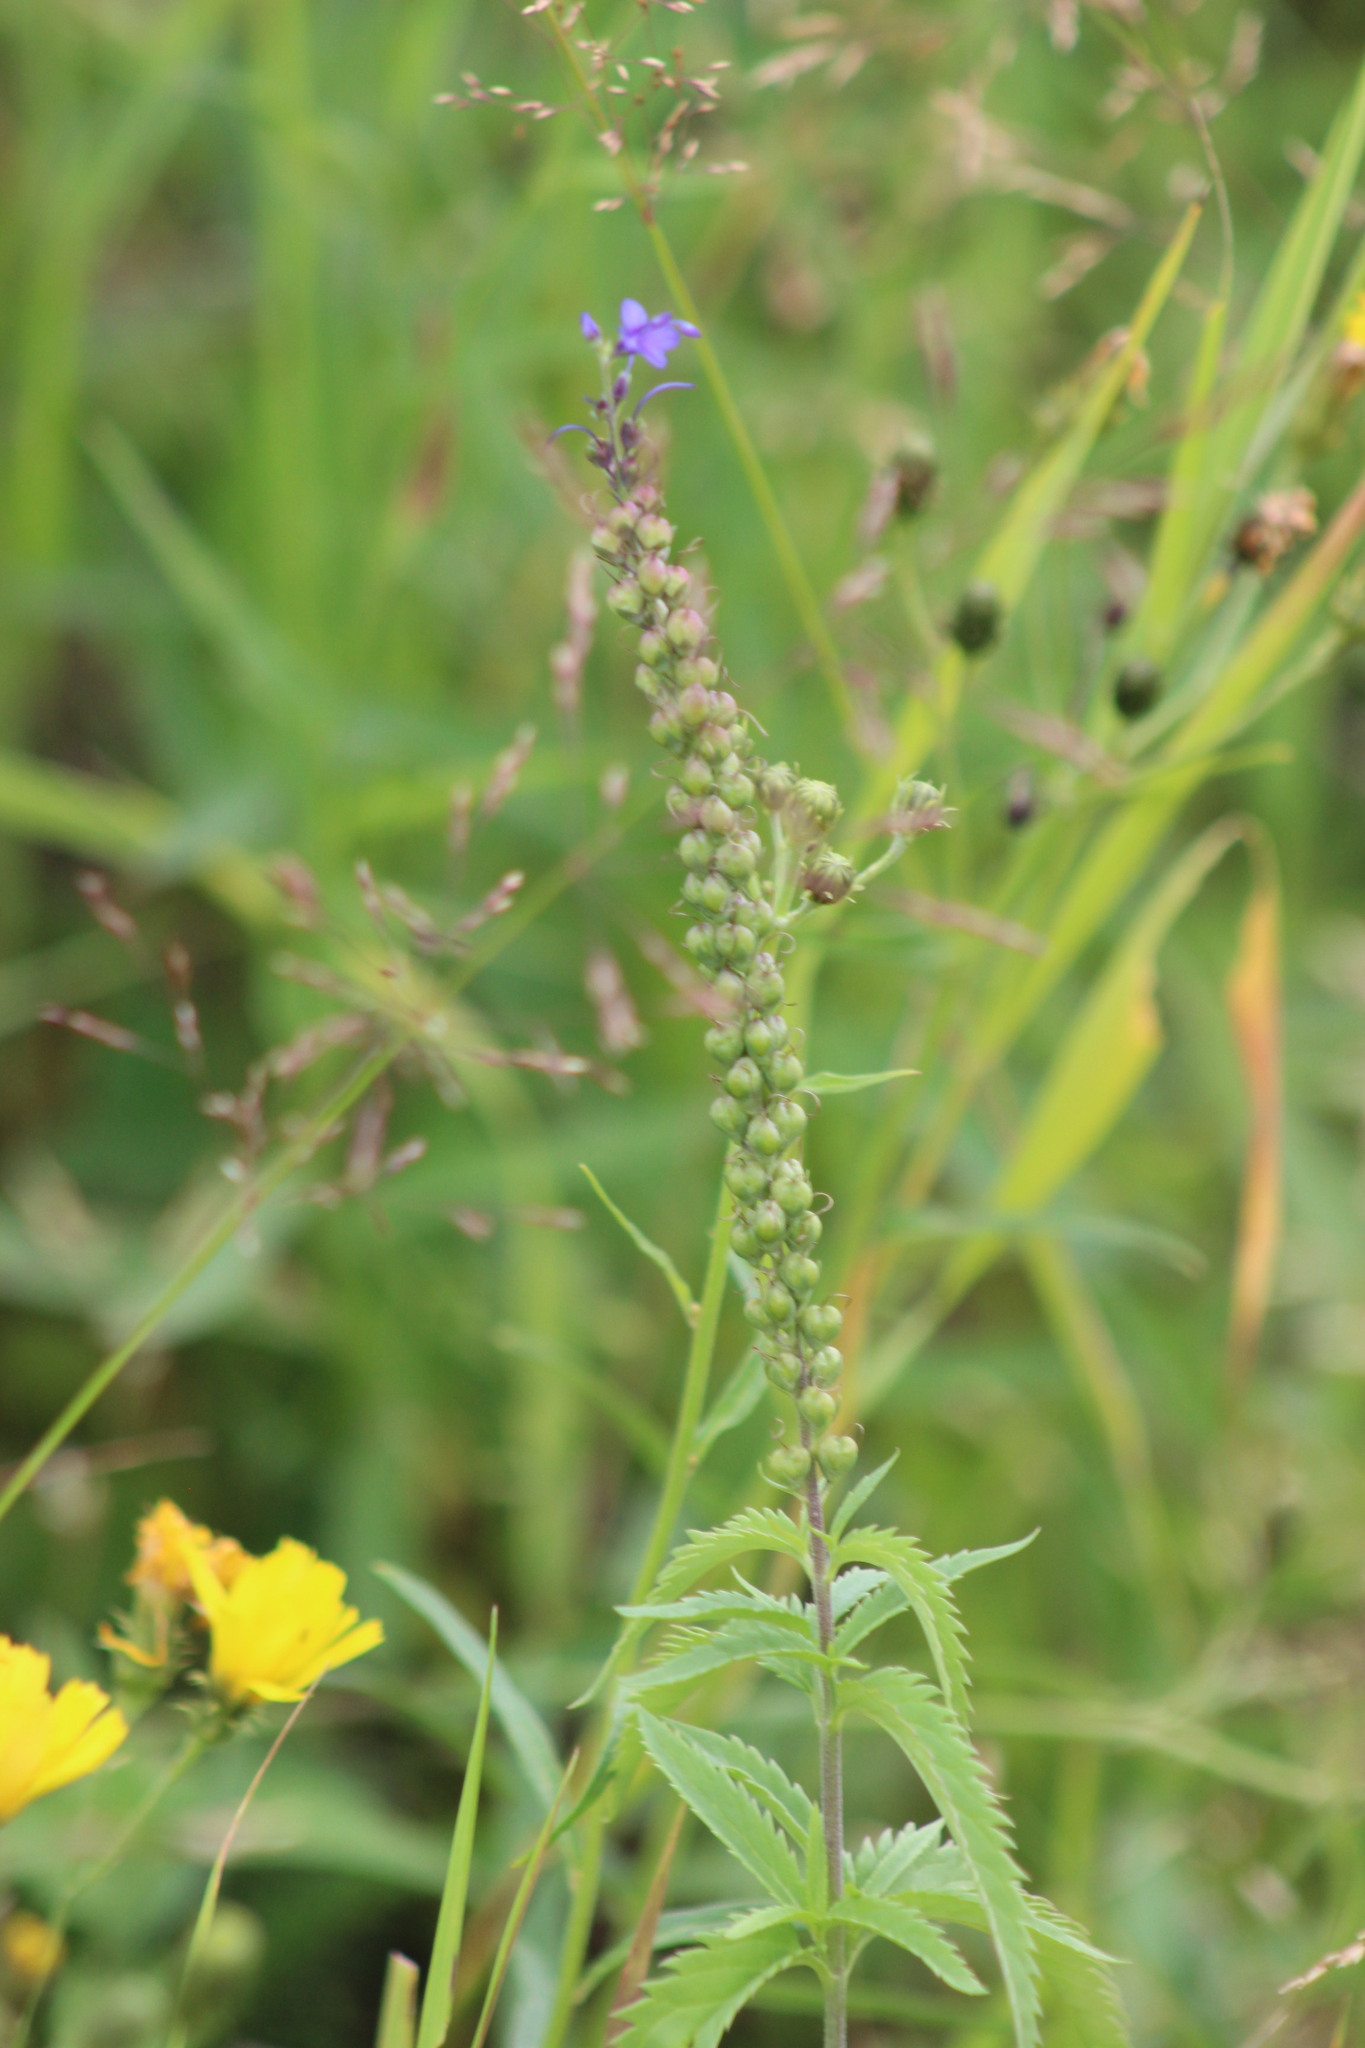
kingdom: Plantae
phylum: Tracheophyta
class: Magnoliopsida
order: Lamiales
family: Plantaginaceae
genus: Veronica
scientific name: Veronica longifolia
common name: Garden speedwell
